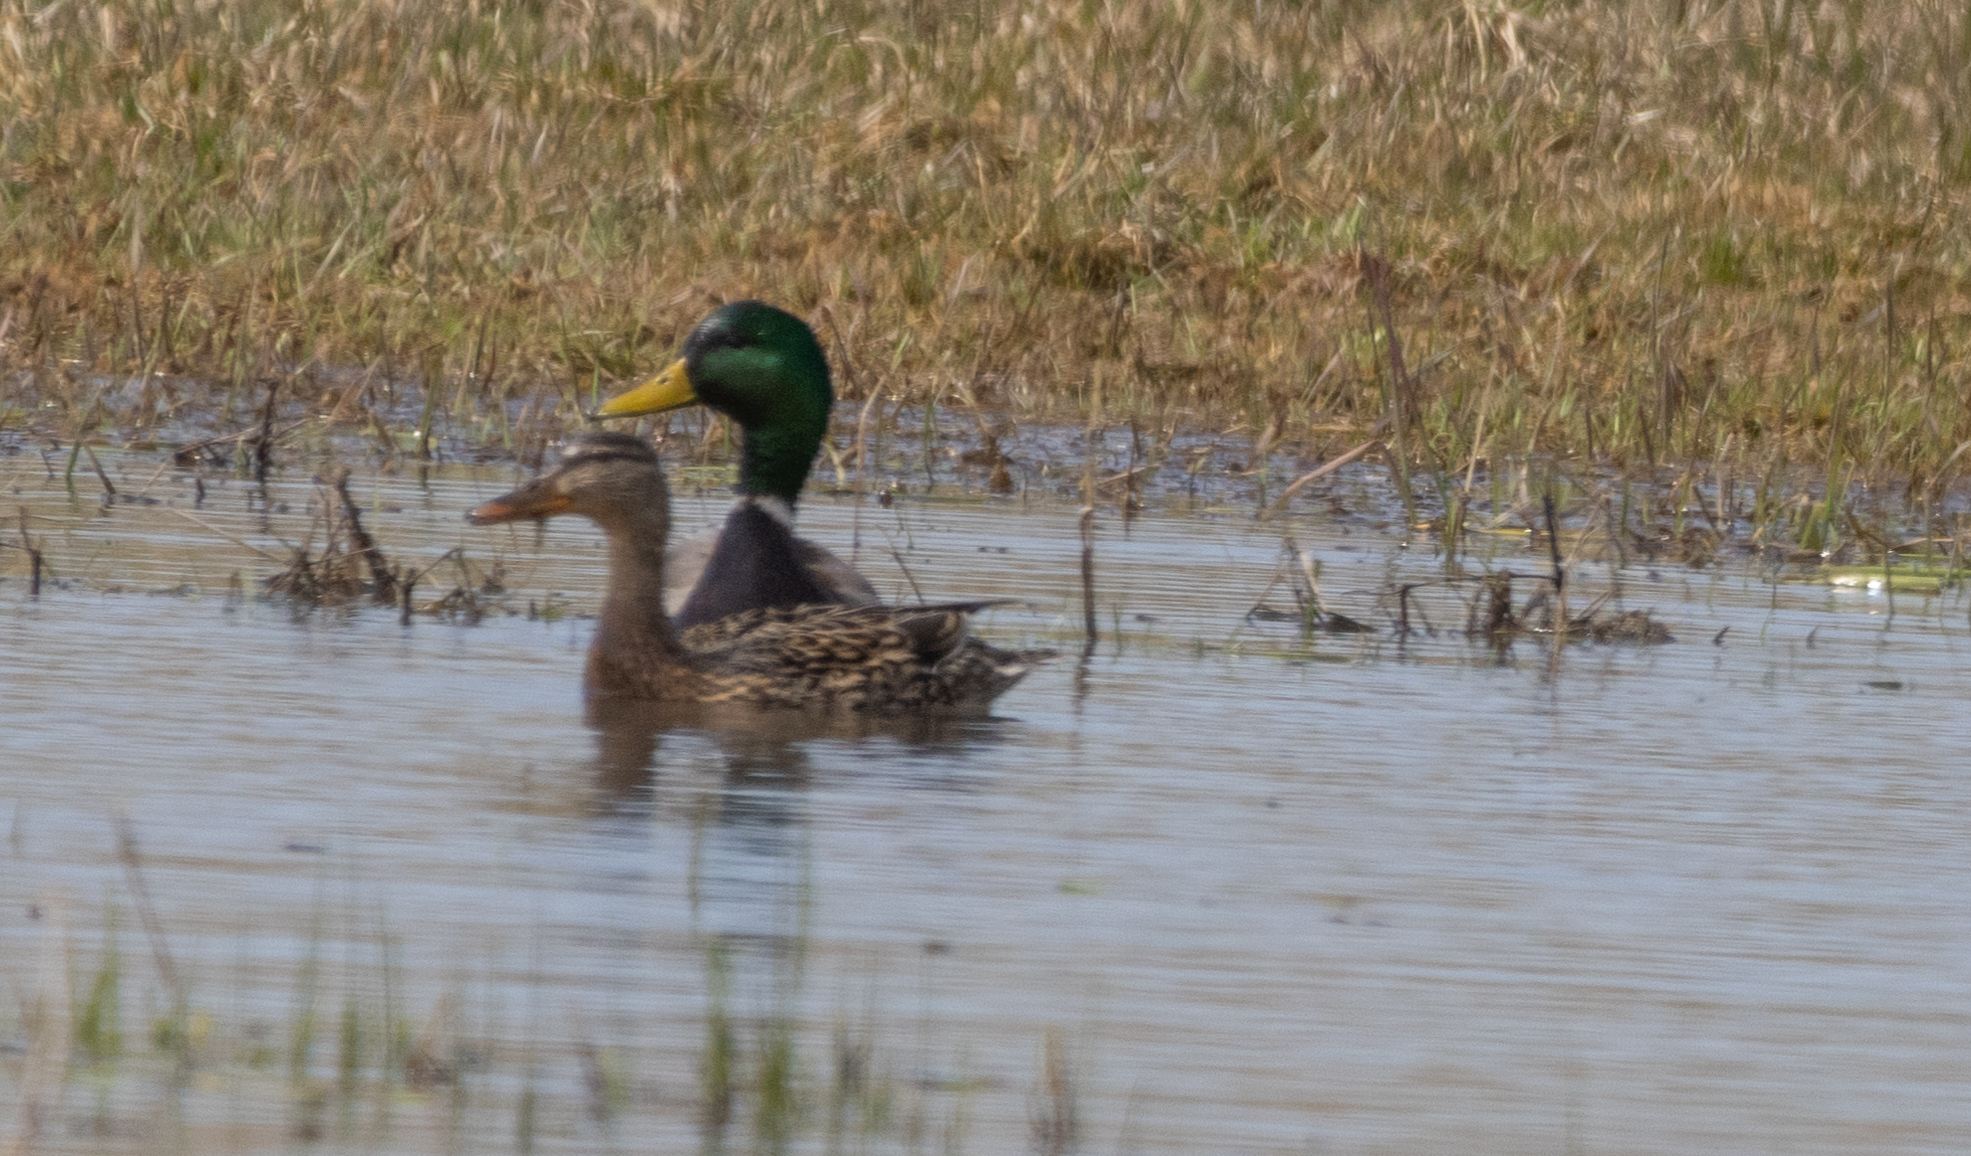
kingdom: Animalia
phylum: Chordata
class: Aves
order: Anseriformes
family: Anatidae
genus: Anas
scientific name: Anas platyrhynchos
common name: Mallard
